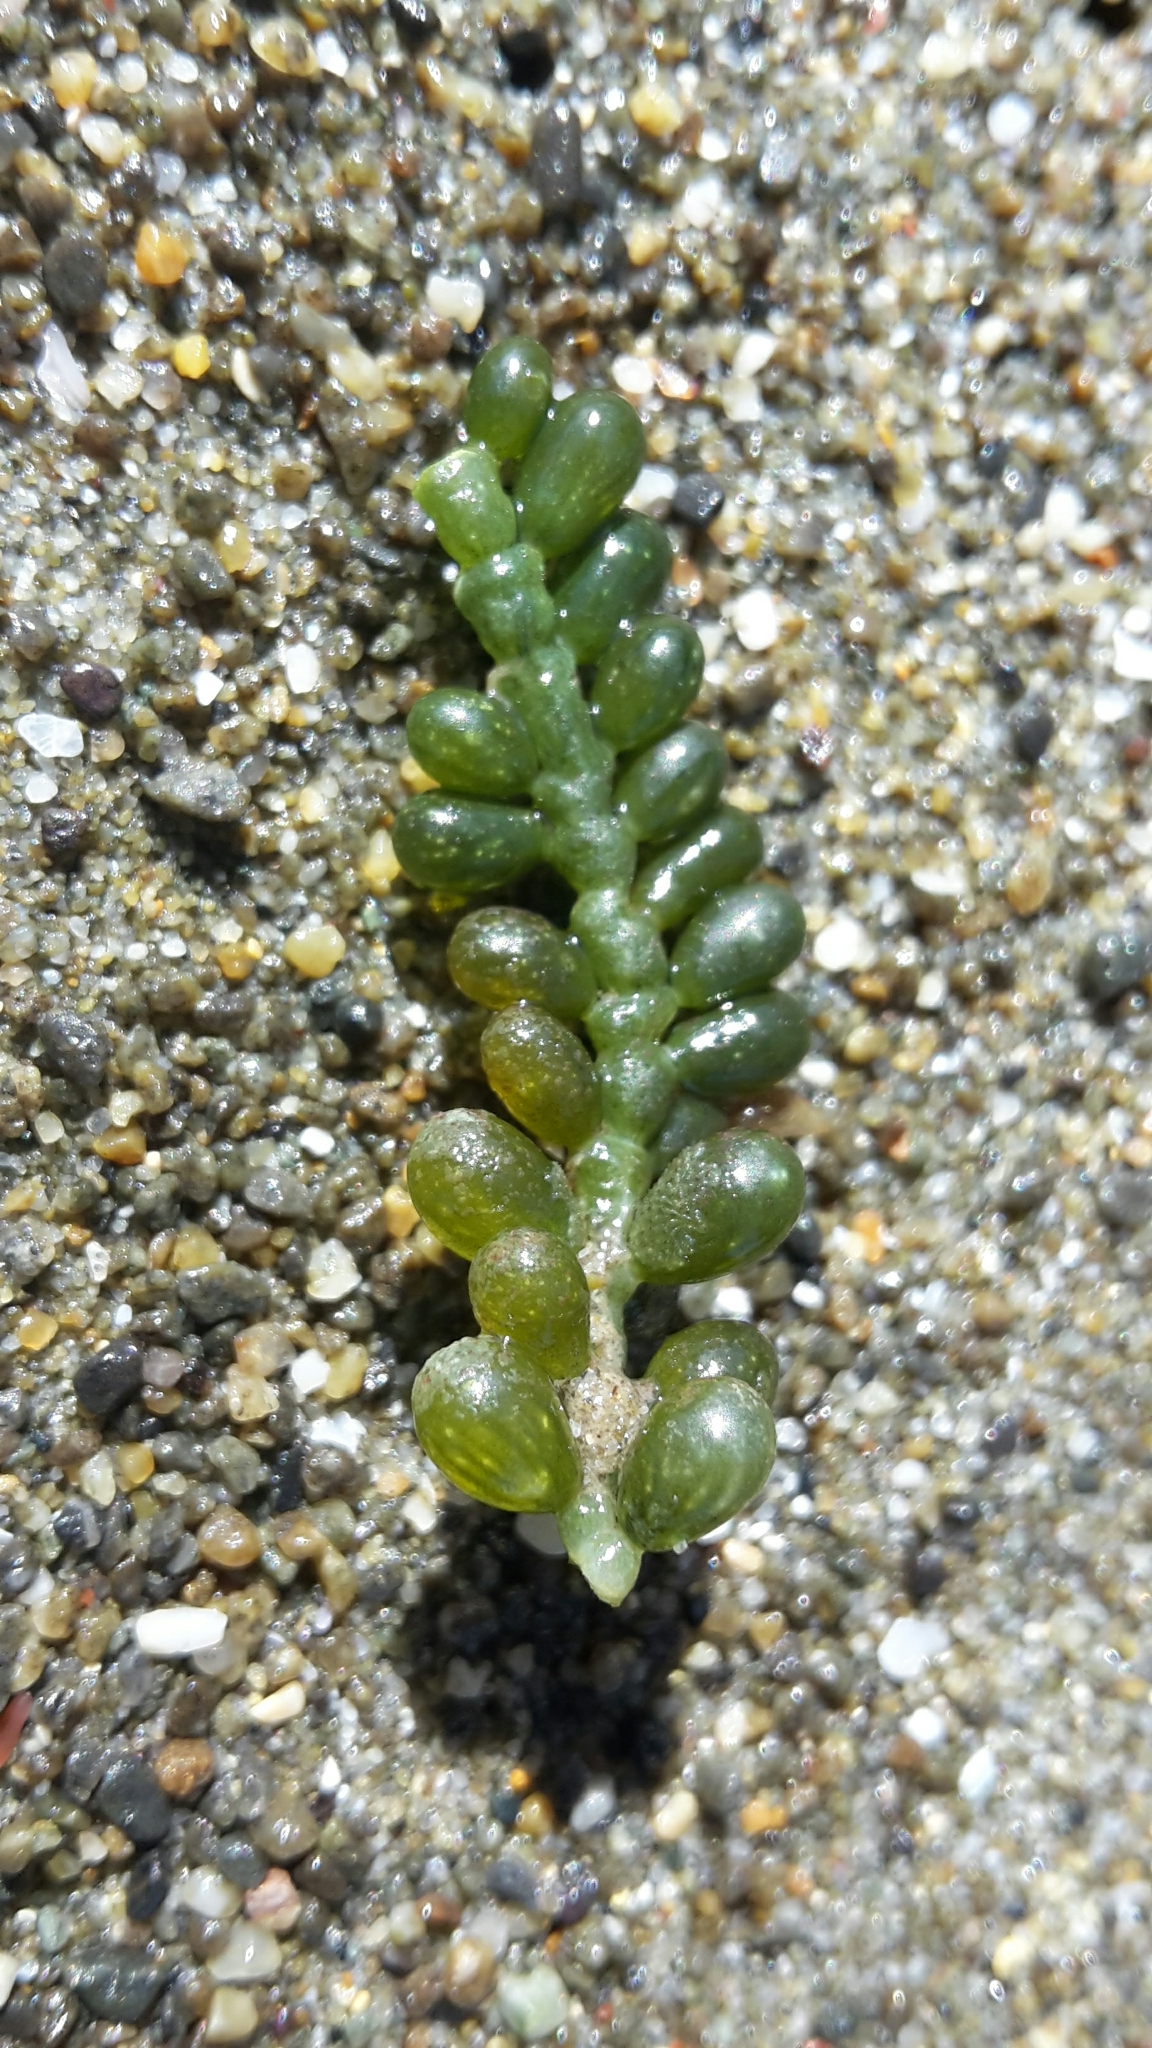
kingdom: Plantae
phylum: Chlorophyta
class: Ulvophyceae
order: Bryopsidales
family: Caulerpaceae
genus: Caulerpa
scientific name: Caulerpa geminata
